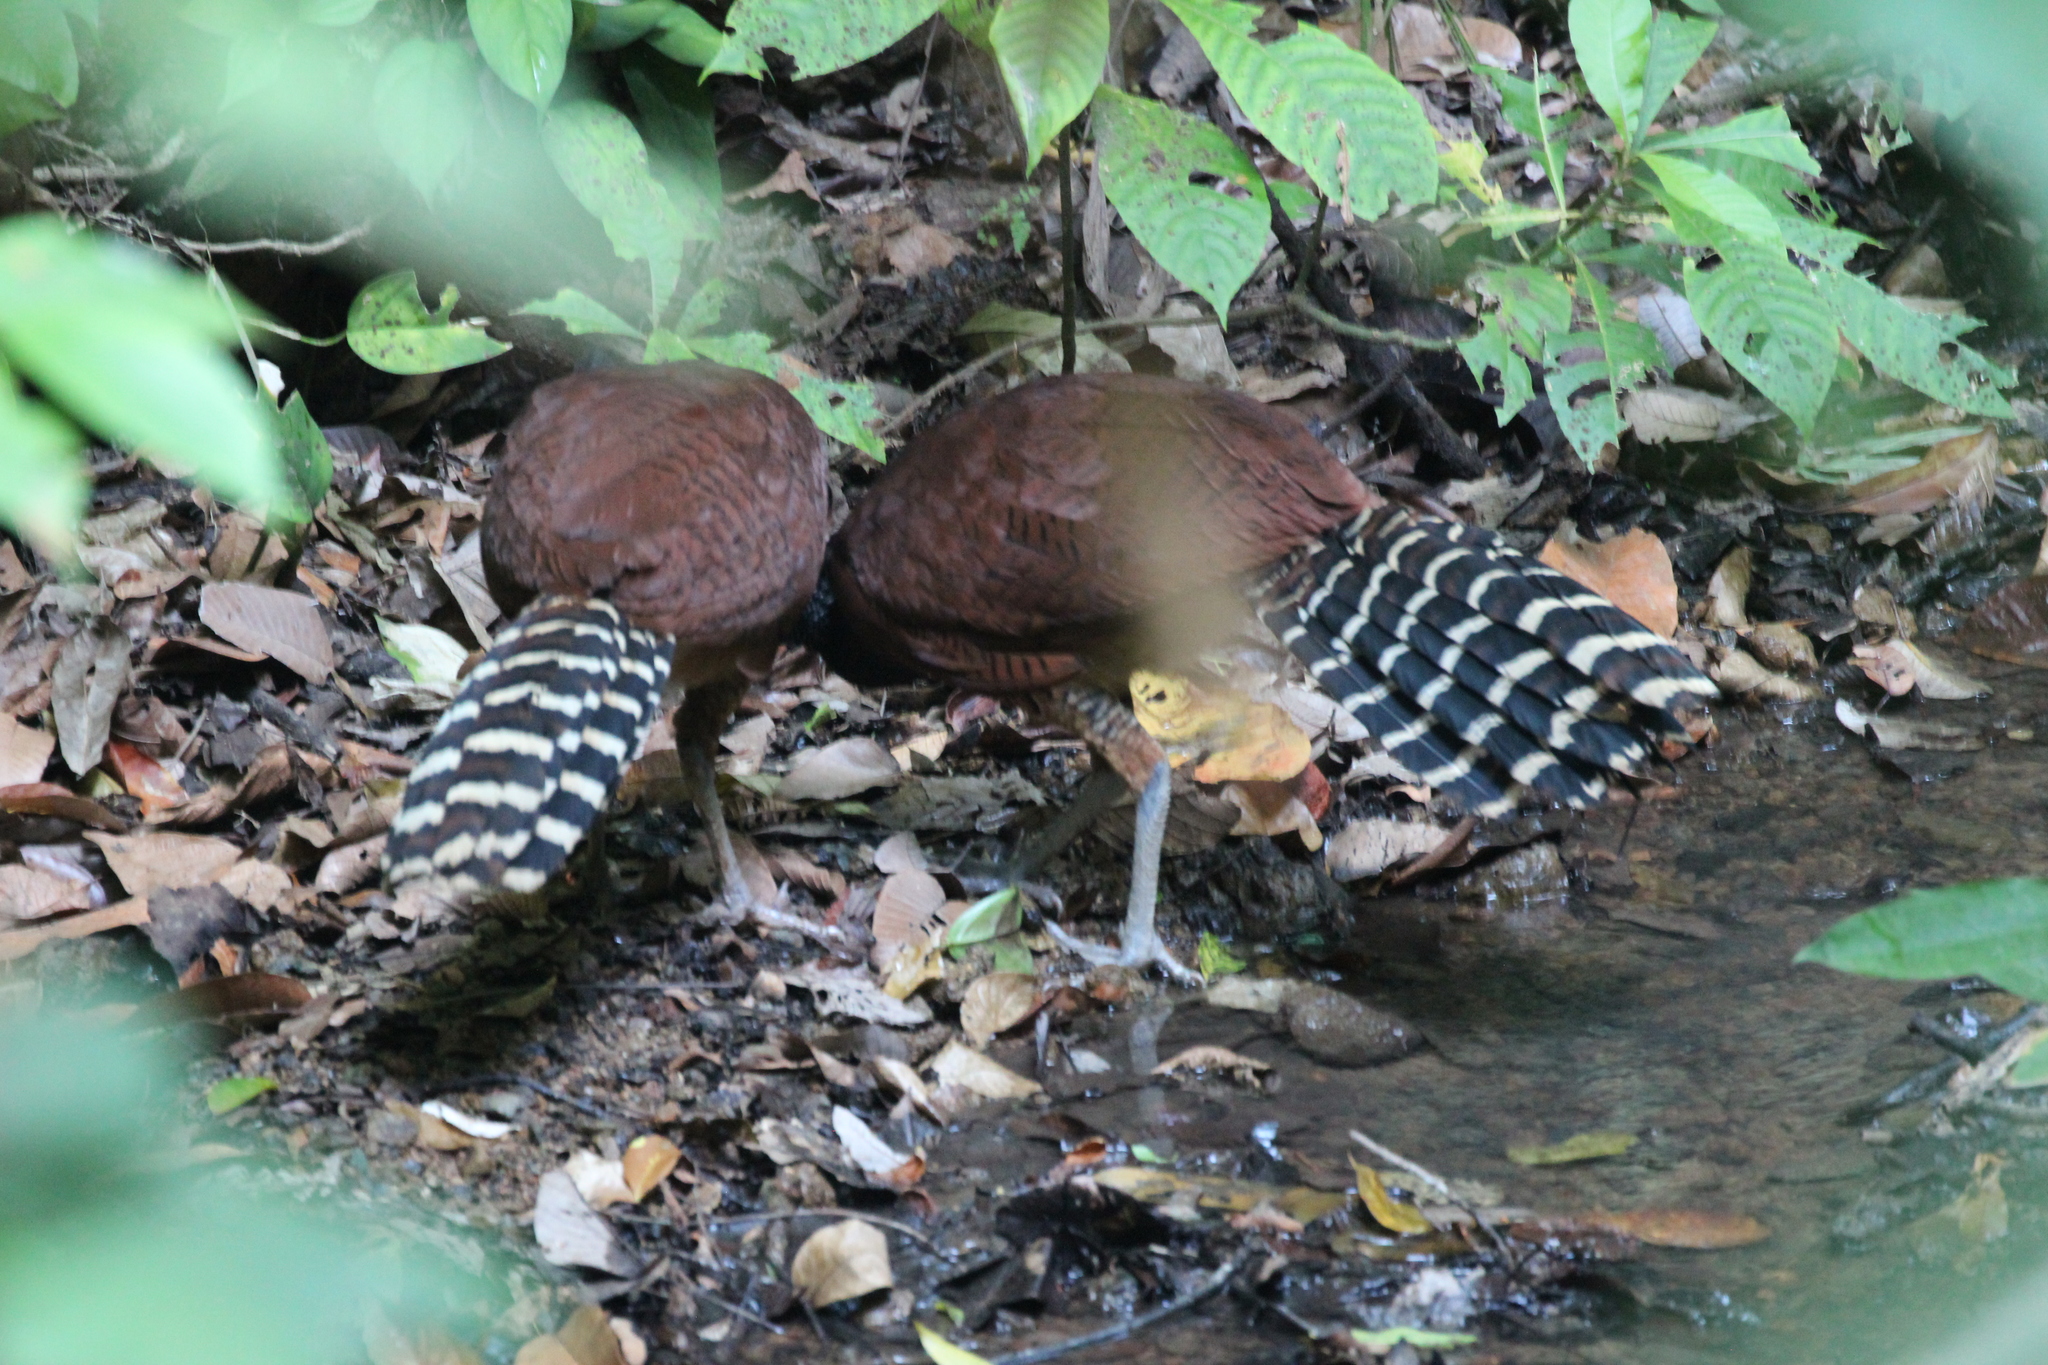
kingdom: Animalia
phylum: Chordata
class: Aves
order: Galliformes
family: Cracidae
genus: Crax
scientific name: Crax rubra
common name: Great curassow
